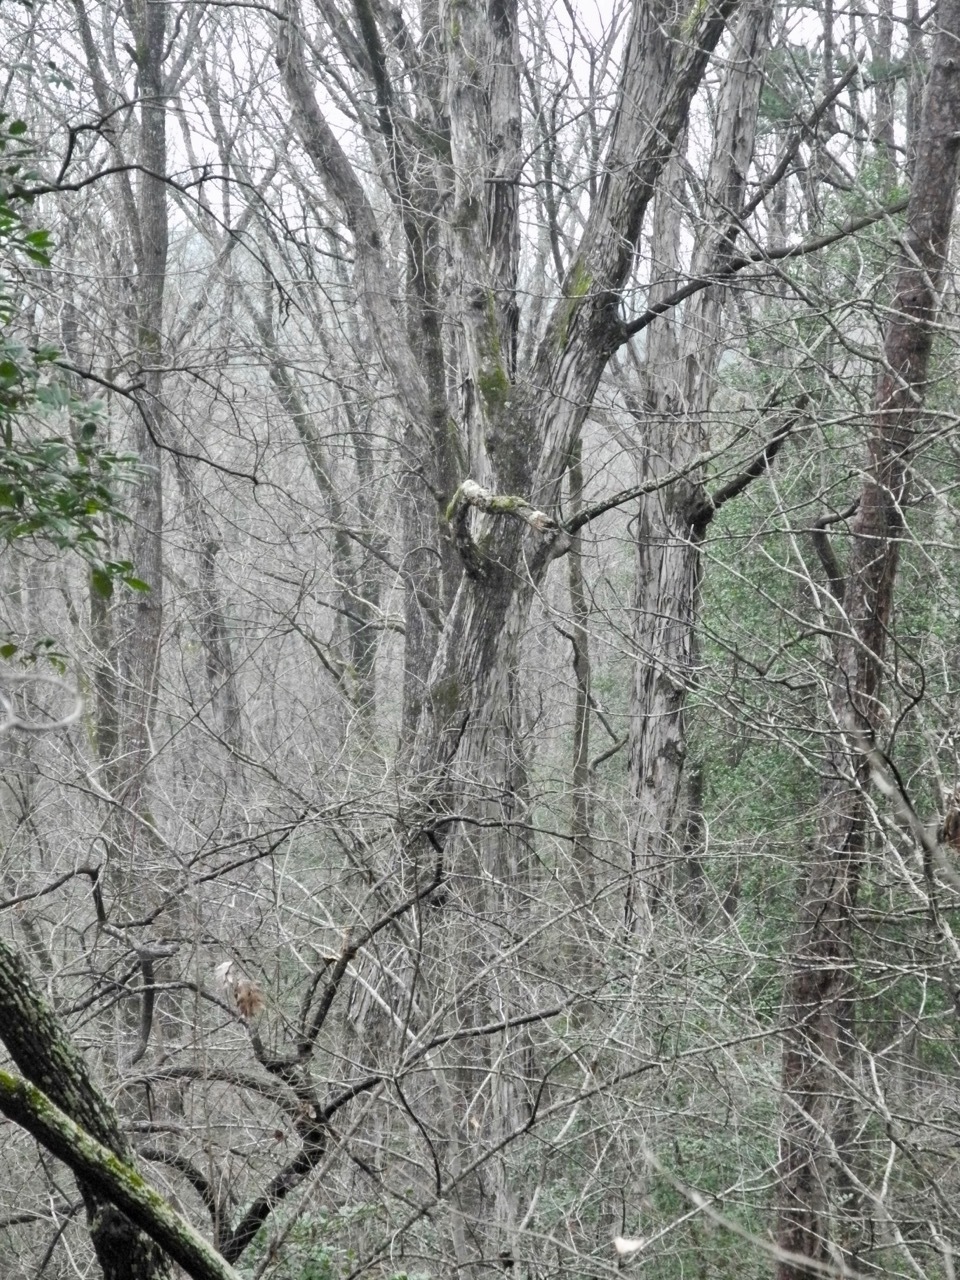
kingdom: Plantae
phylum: Tracheophyta
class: Magnoliopsida
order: Fagales
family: Fagaceae
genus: Quercus
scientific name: Quercus alba
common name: White oak
